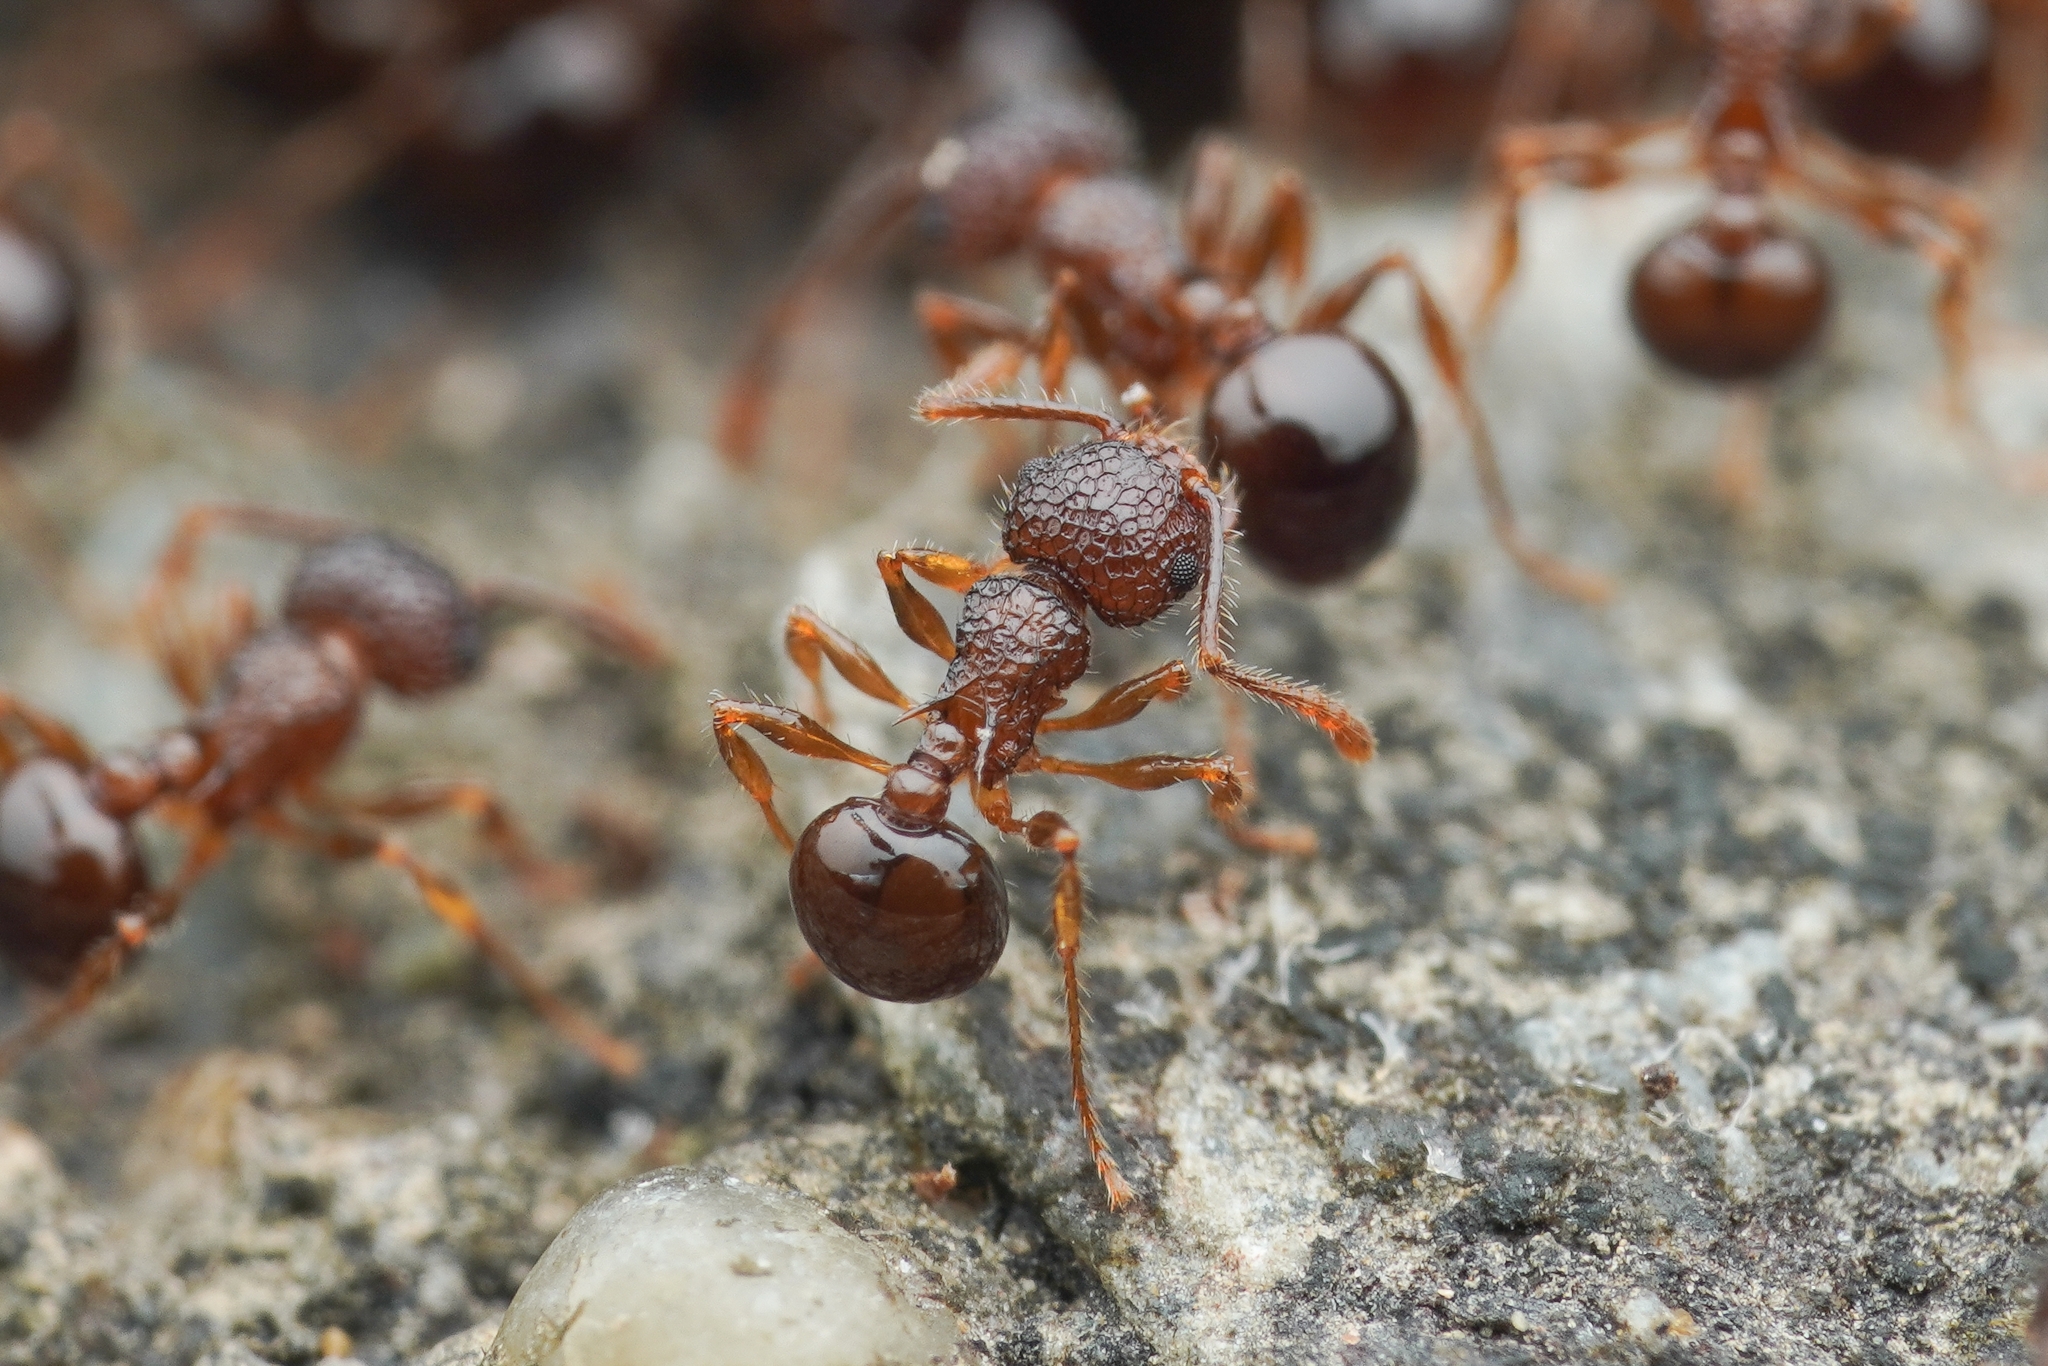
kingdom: Animalia
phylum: Arthropoda
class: Insecta
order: Hymenoptera
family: Formicidae
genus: Pristomyrmex
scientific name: Pristomyrmex punctatus
